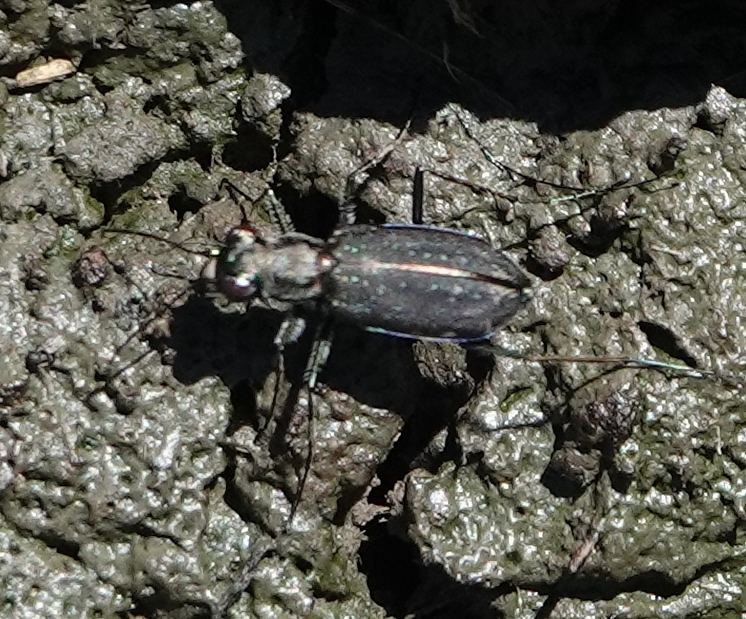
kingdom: Animalia
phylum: Arthropoda
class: Insecta
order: Coleoptera
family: Carabidae
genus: Cicindela
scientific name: Cicindela punctulata
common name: Punctured tiger beetle
